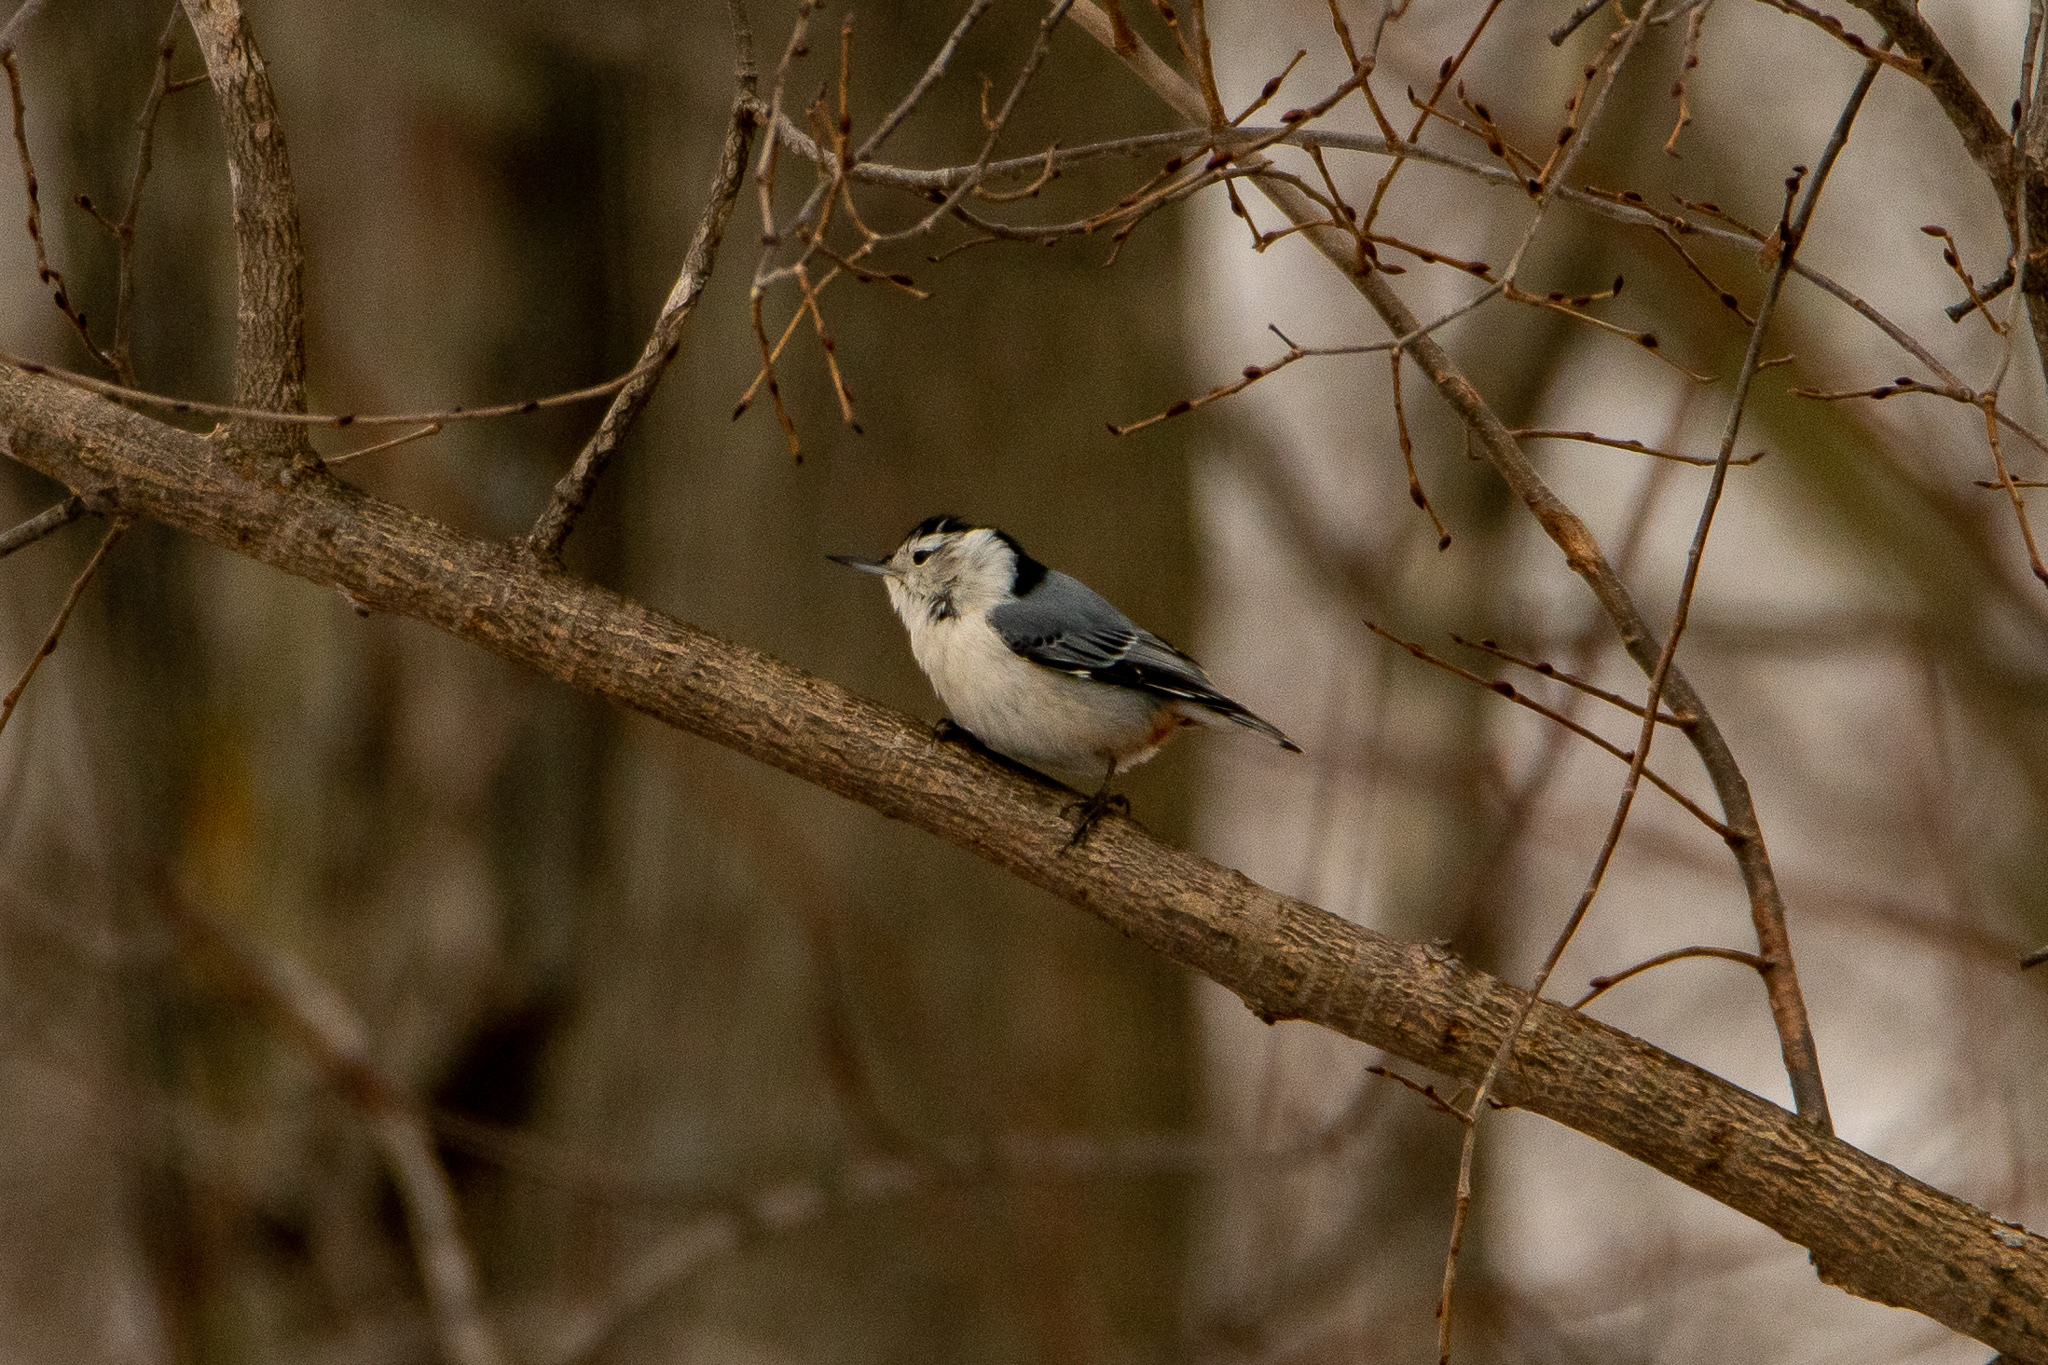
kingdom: Animalia
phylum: Chordata
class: Aves
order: Passeriformes
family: Sittidae
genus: Sitta
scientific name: Sitta carolinensis
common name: White-breasted nuthatch
